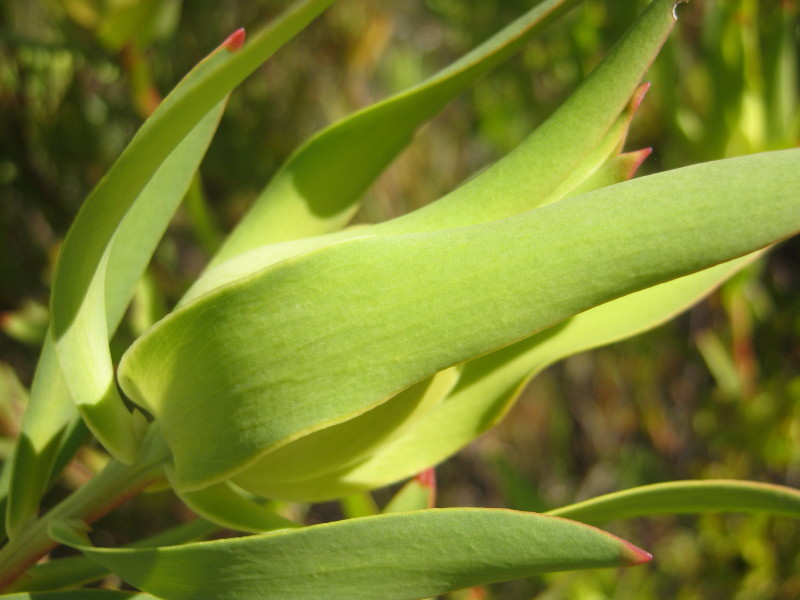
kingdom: Plantae
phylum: Tracheophyta
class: Magnoliopsida
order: Proteales
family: Proteaceae
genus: Leucadendron
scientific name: Leucadendron salignum
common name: Common sunshine conebush
